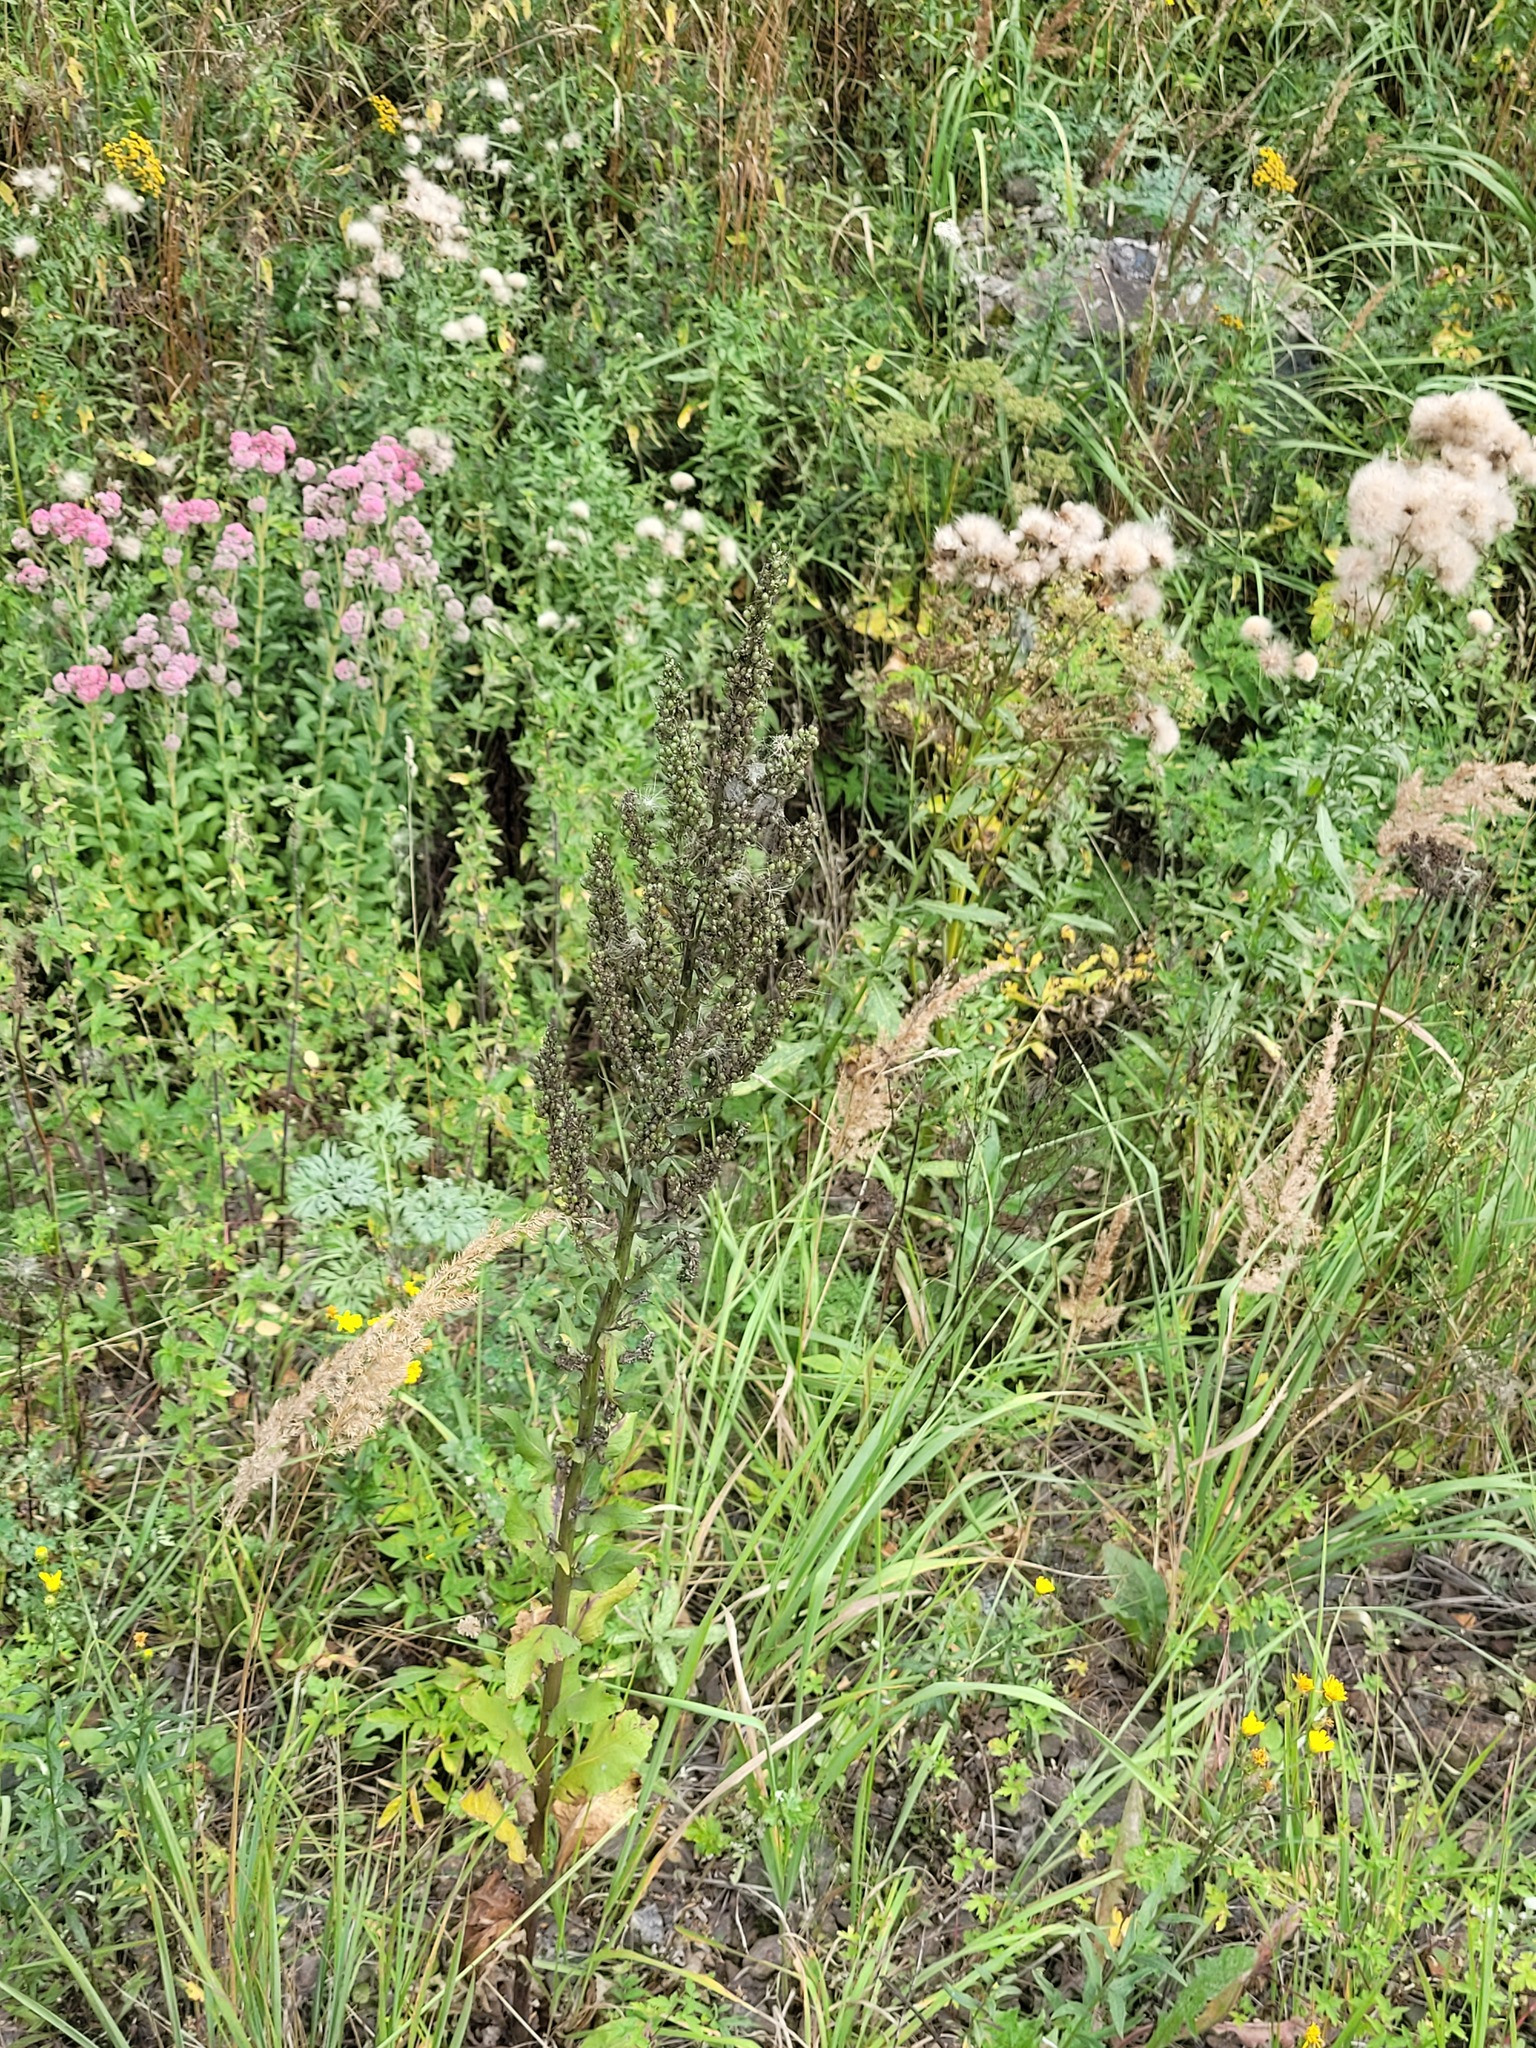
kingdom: Plantae
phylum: Tracheophyta
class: Magnoliopsida
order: Lamiales
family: Scrophulariaceae
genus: Verbascum
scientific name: Verbascum lychnitis
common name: White mullein
